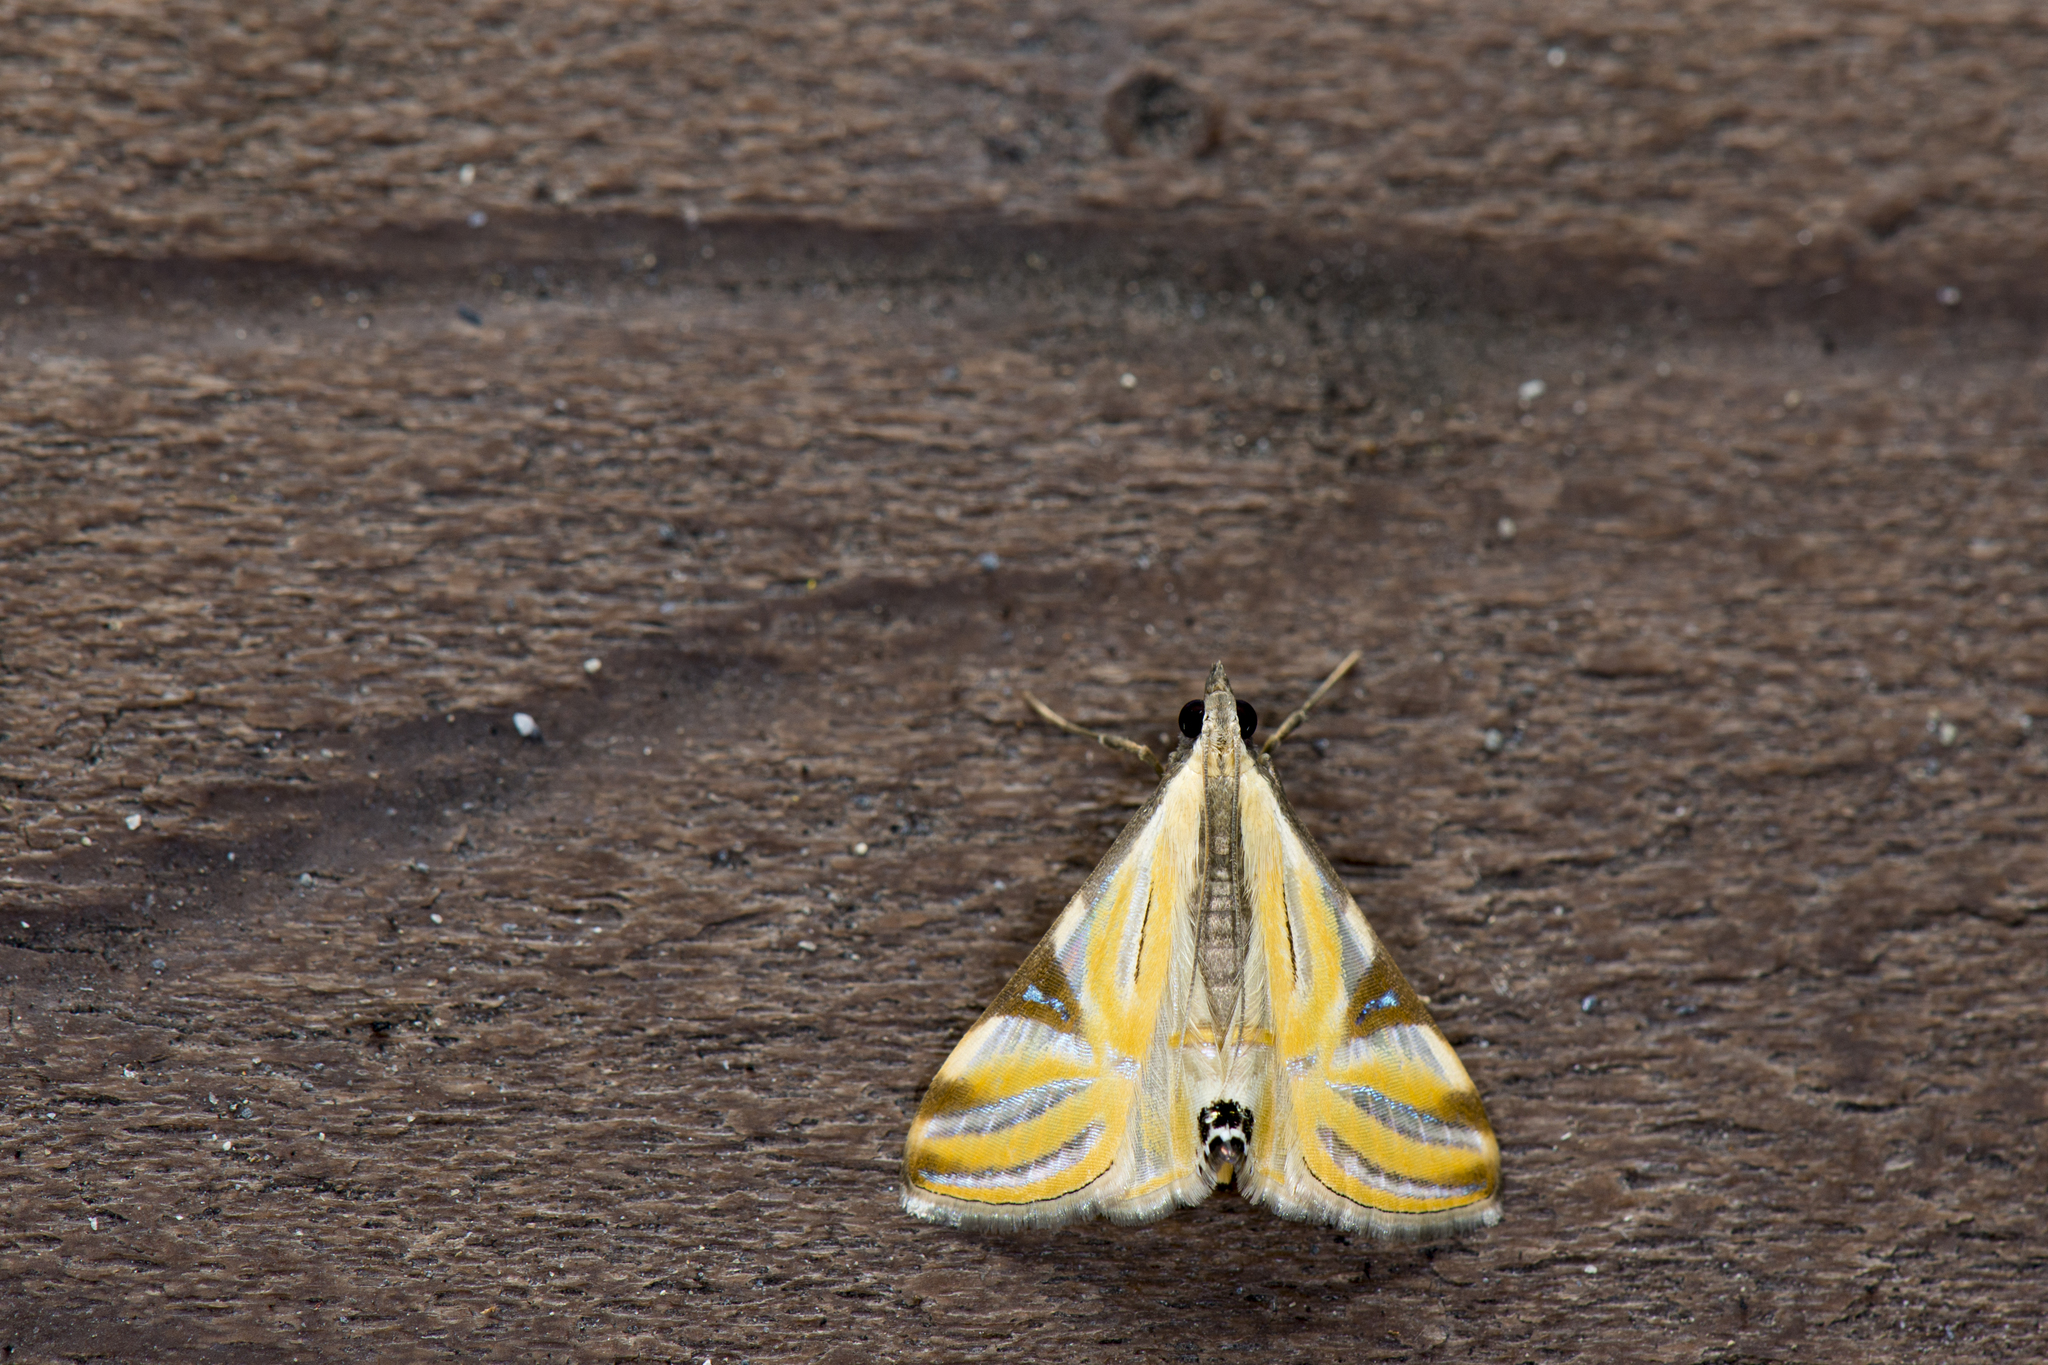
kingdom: Animalia
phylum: Arthropoda
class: Insecta
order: Lepidoptera
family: Crambidae
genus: Talanga
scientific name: Talanga sexpunctalis
